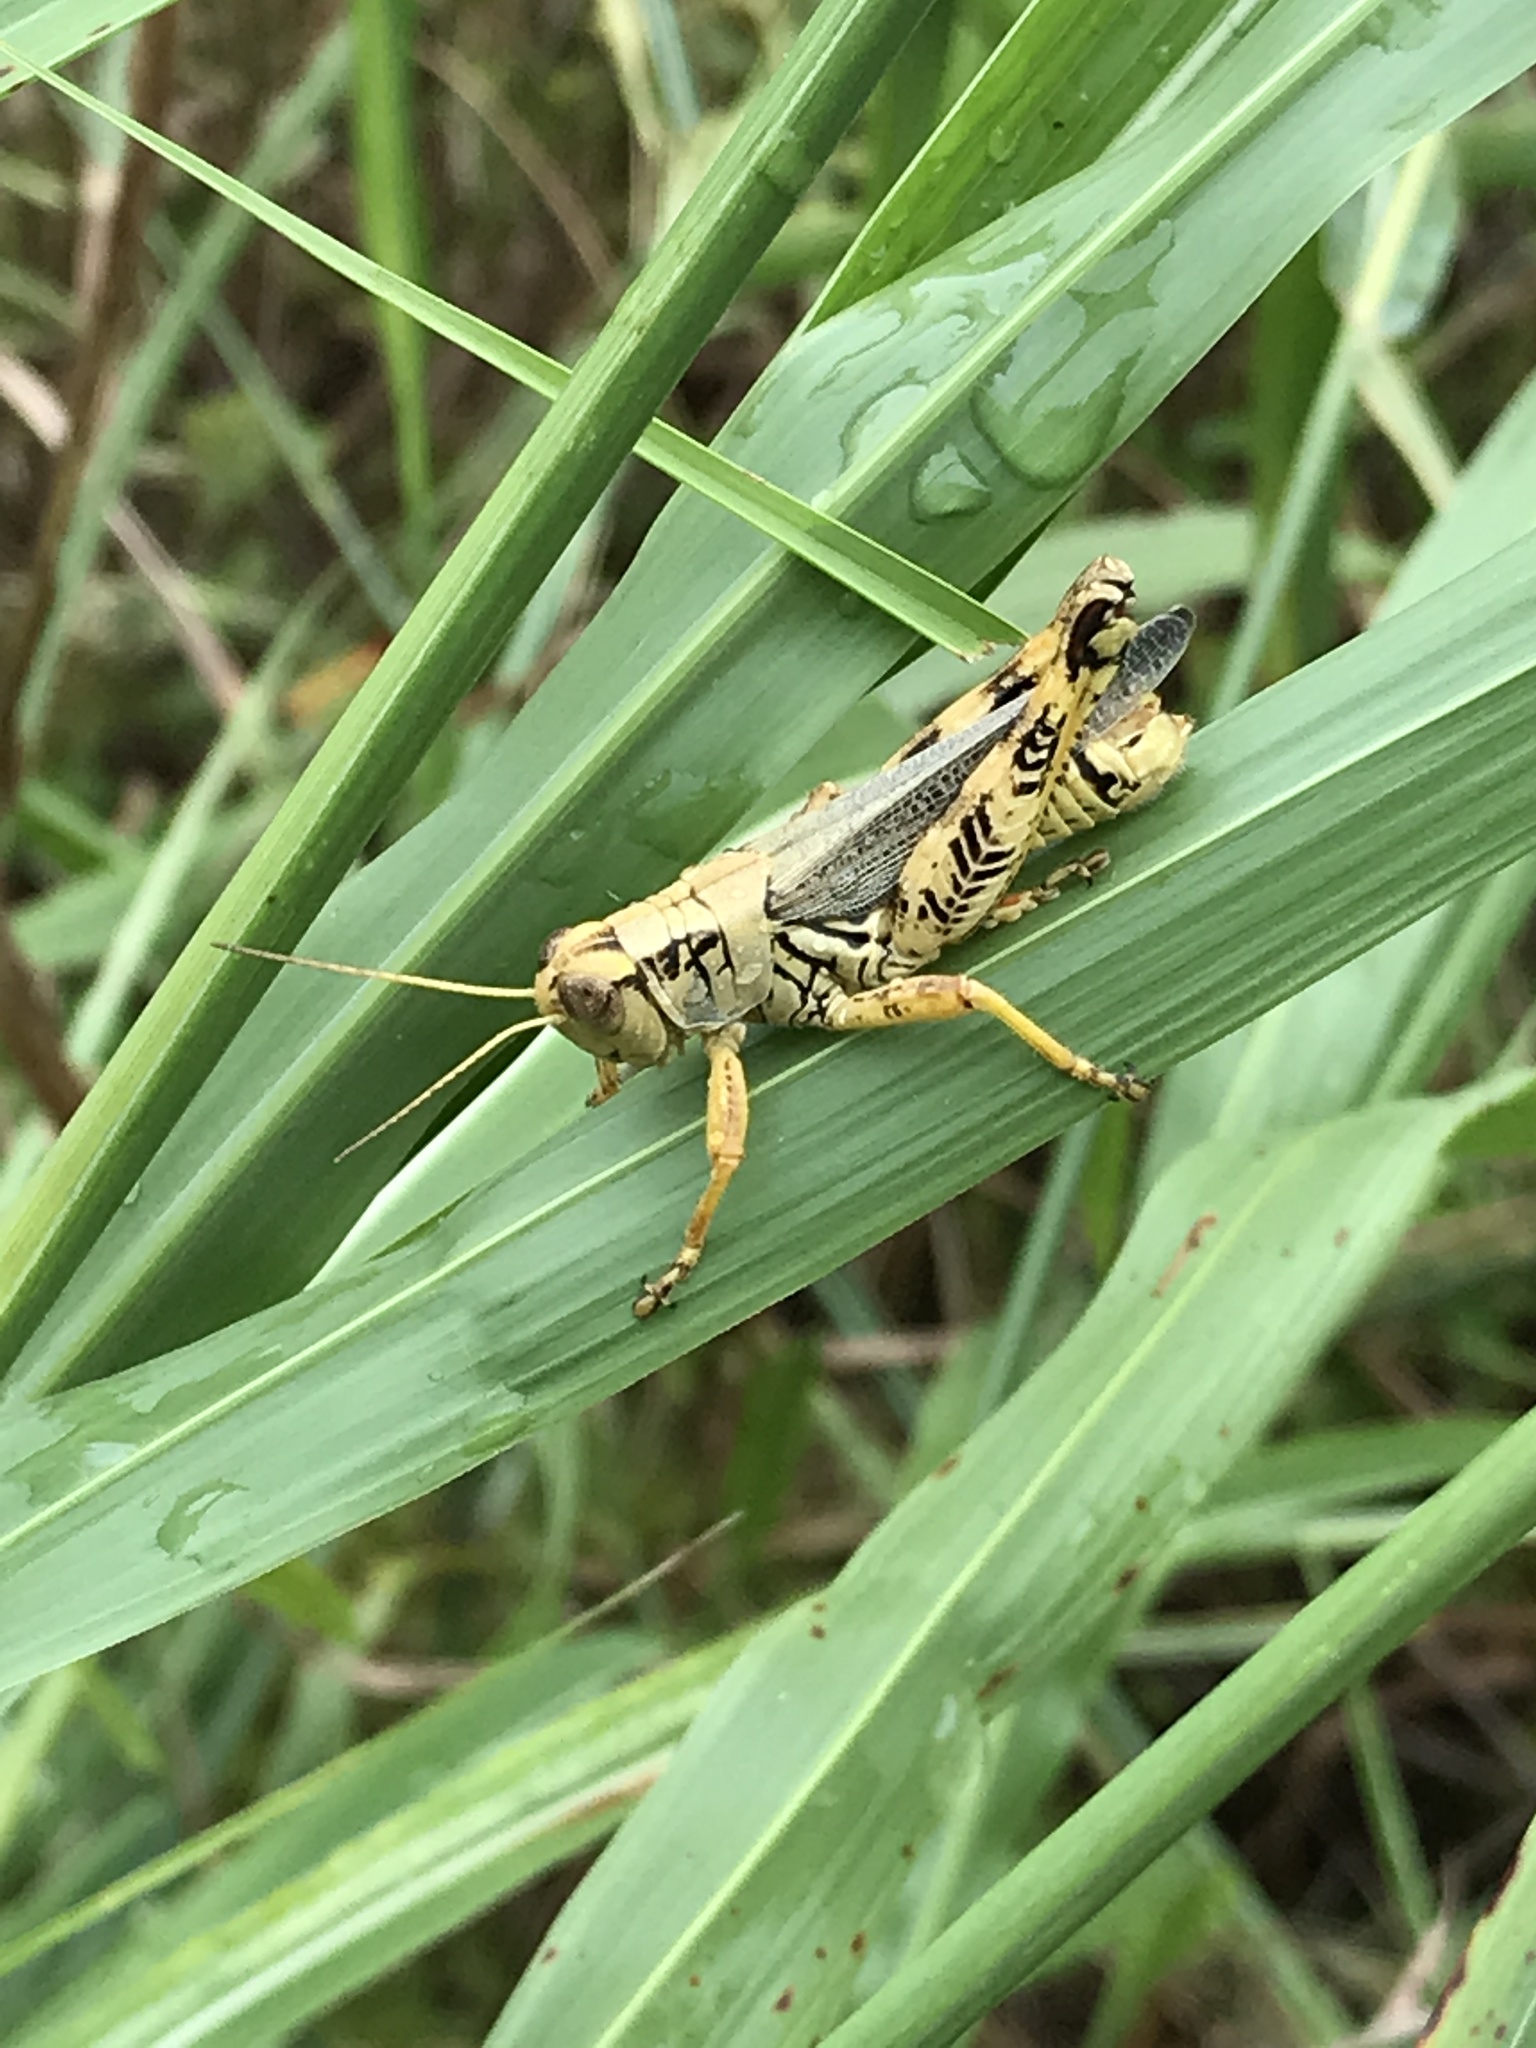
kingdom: Animalia
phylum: Arthropoda
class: Insecta
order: Orthoptera
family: Acrididae
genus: Melanoplus
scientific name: Melanoplus differentialis
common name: Differential grasshopper
